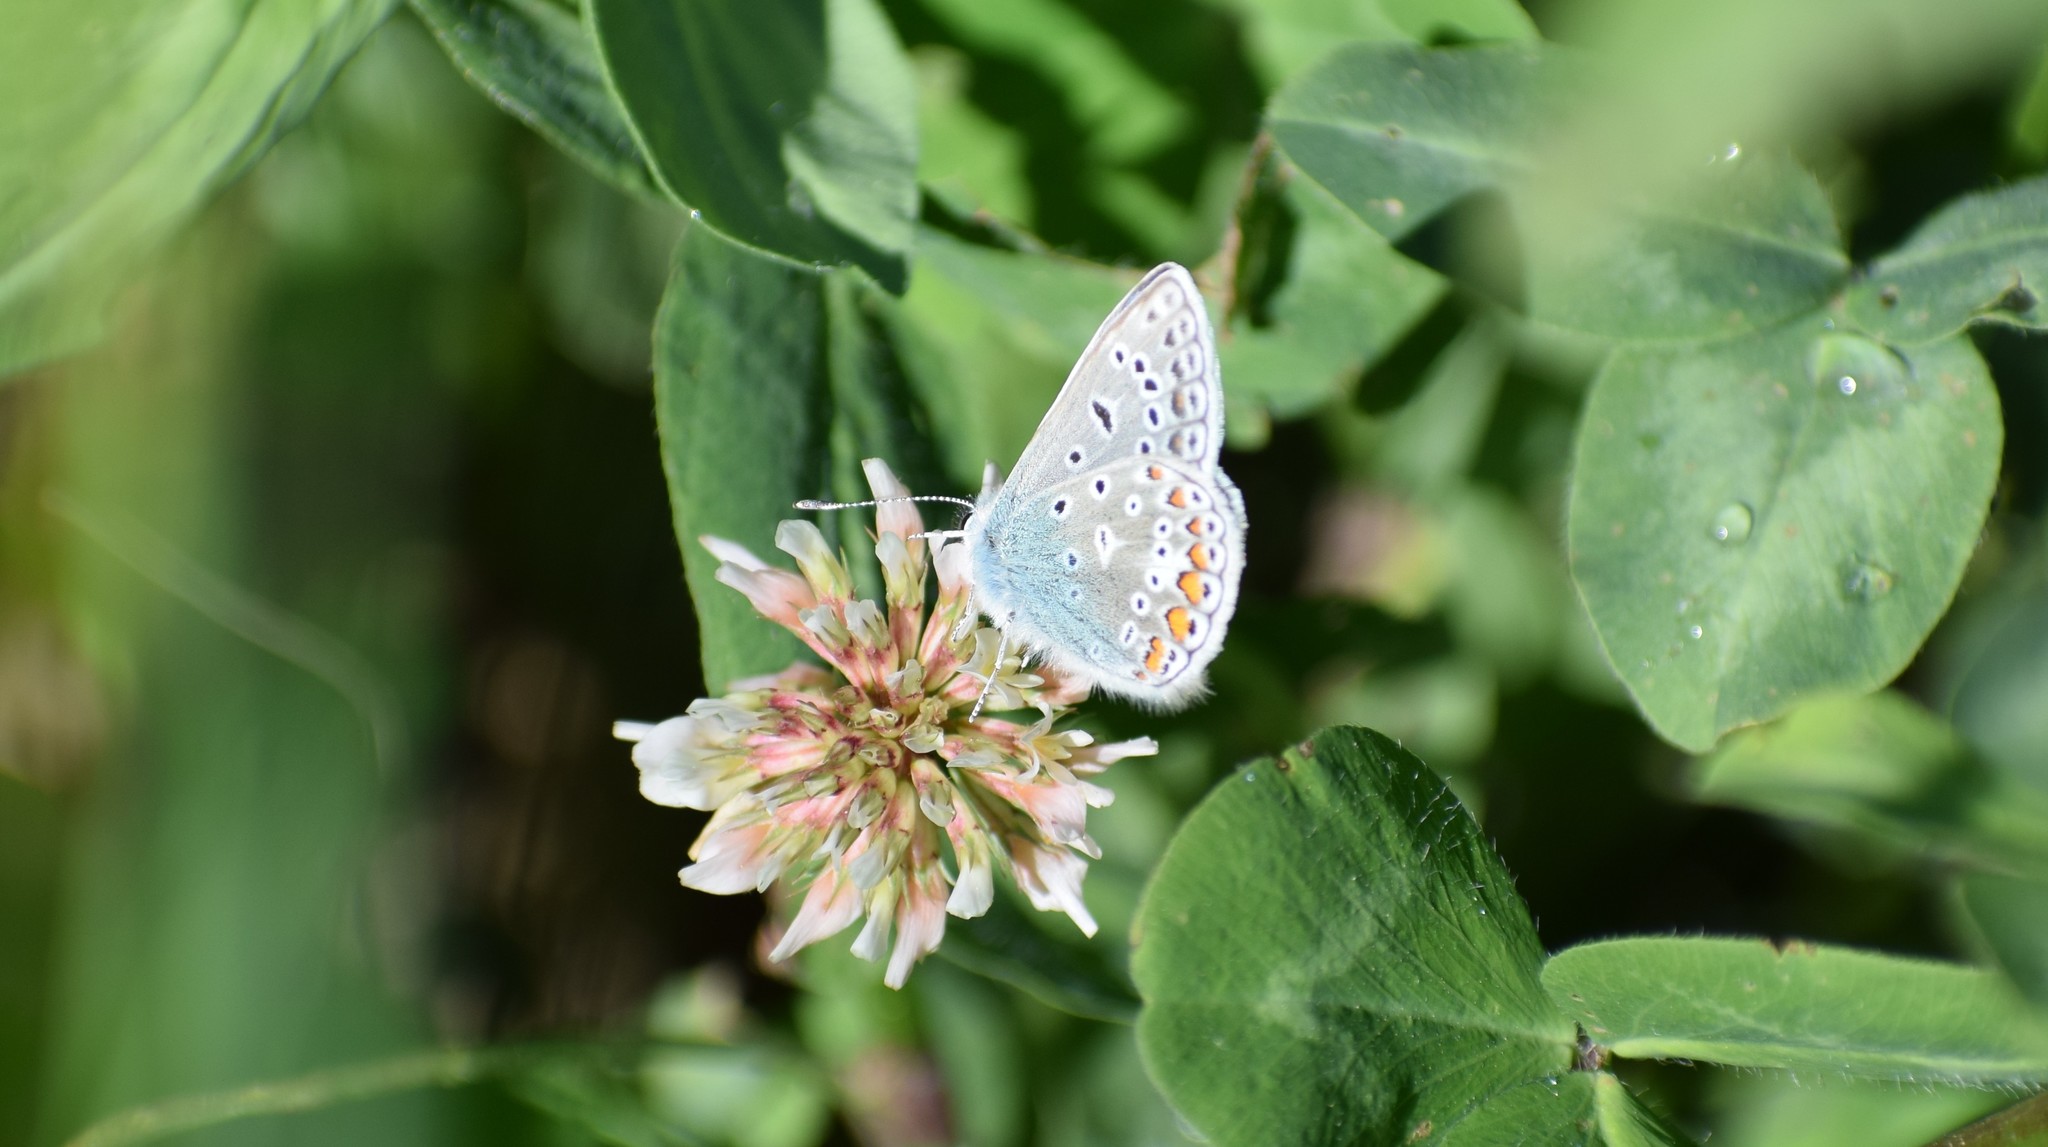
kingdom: Animalia
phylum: Arthropoda
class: Insecta
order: Lepidoptera
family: Lycaenidae
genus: Polyommatus
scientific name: Polyommatus icarus
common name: Common blue
